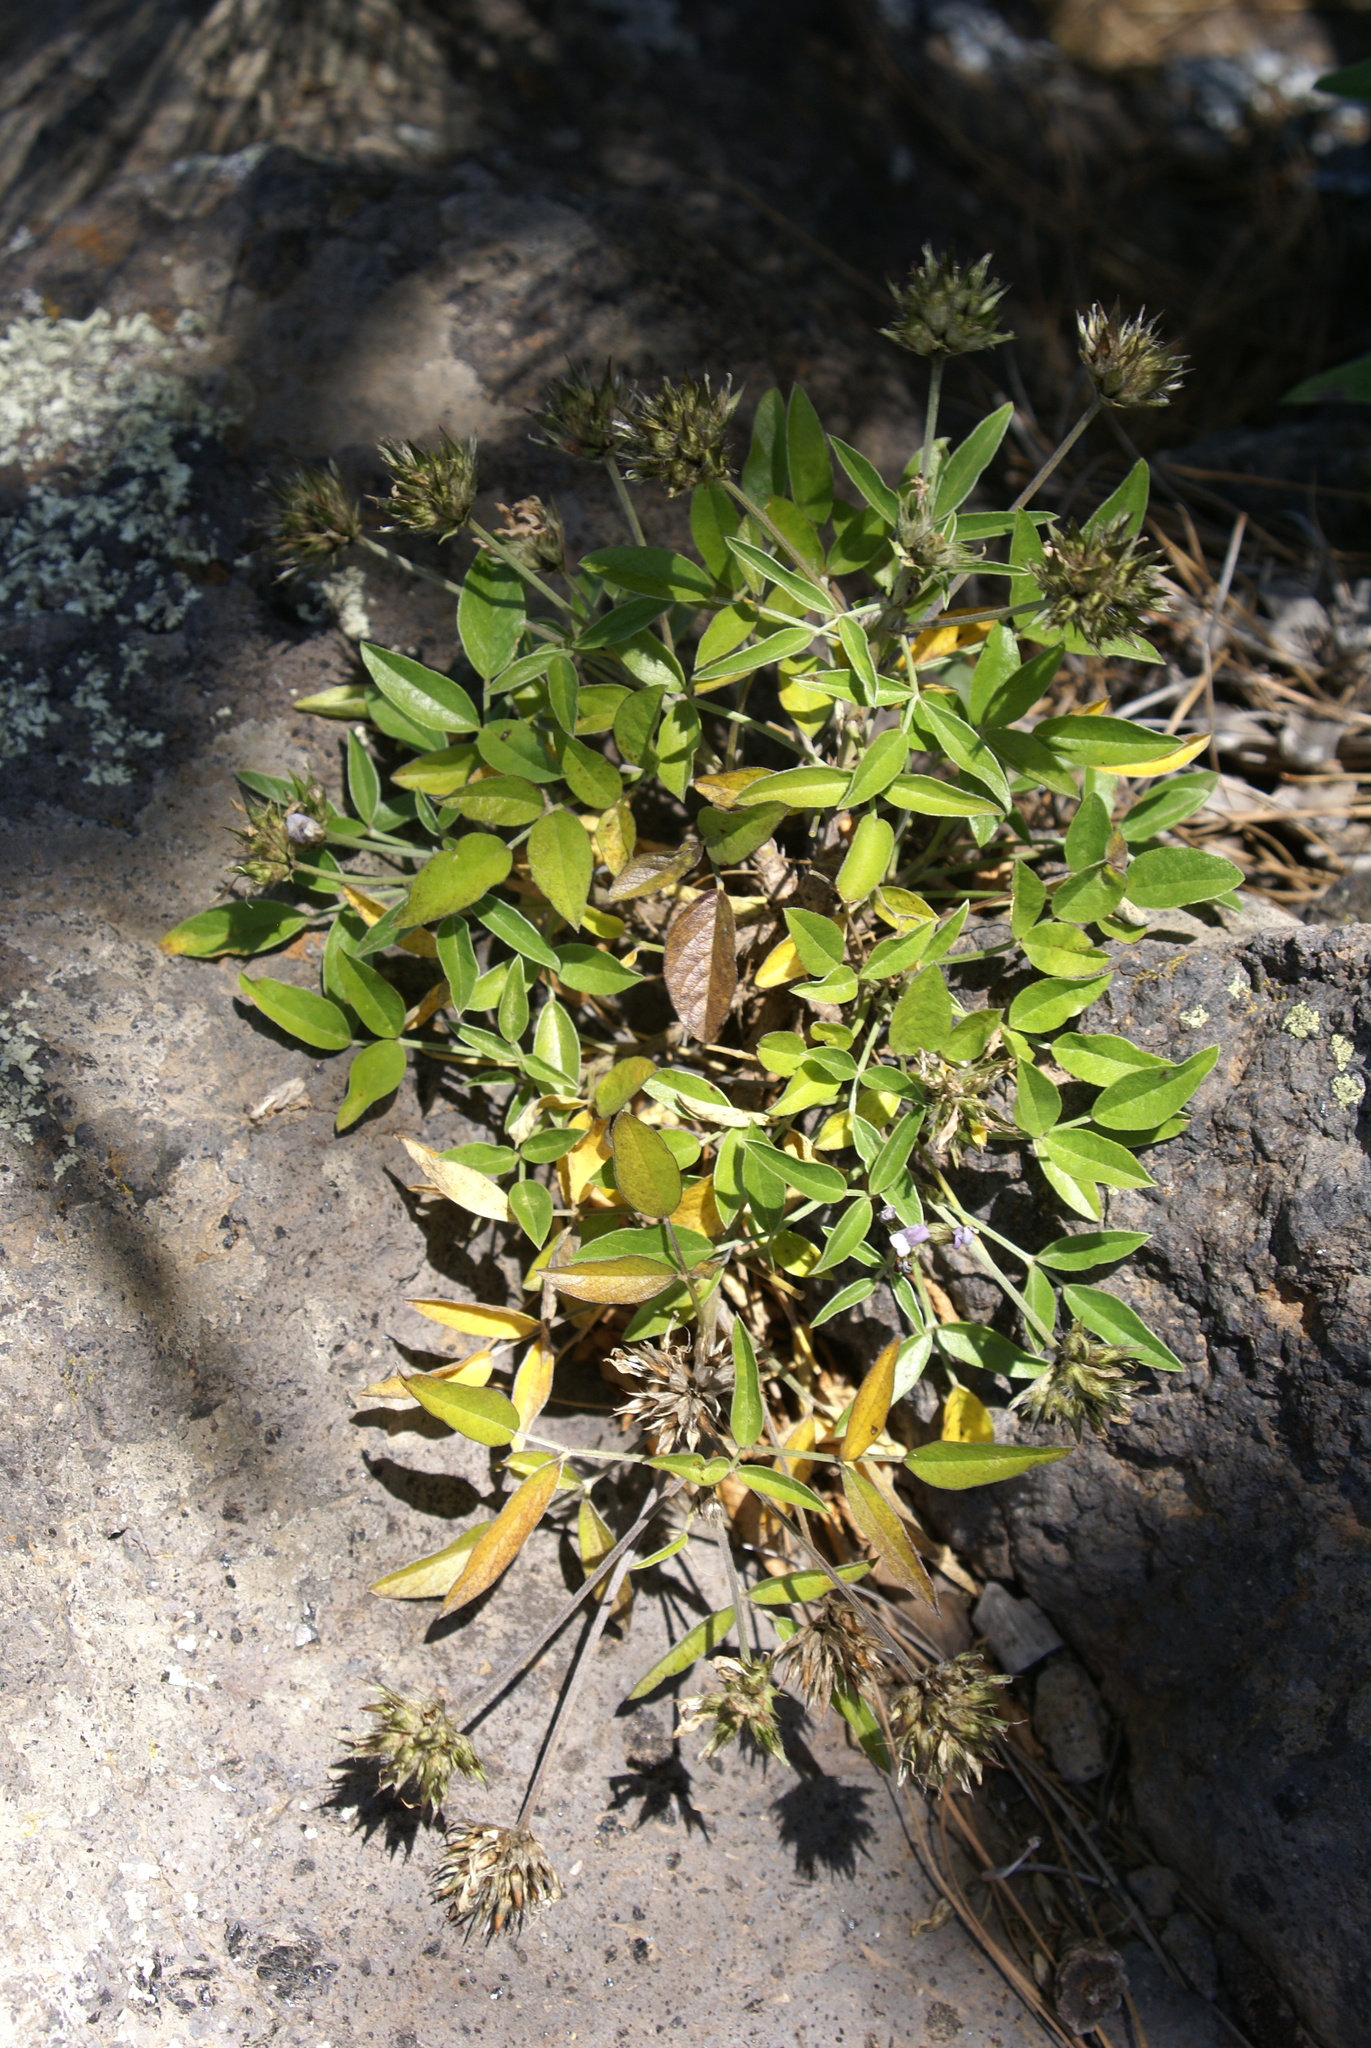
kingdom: Plantae
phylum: Tracheophyta
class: Magnoliopsida
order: Fabales
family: Fabaceae
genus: Bituminaria
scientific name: Bituminaria bituminosa
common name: Arabian pea
